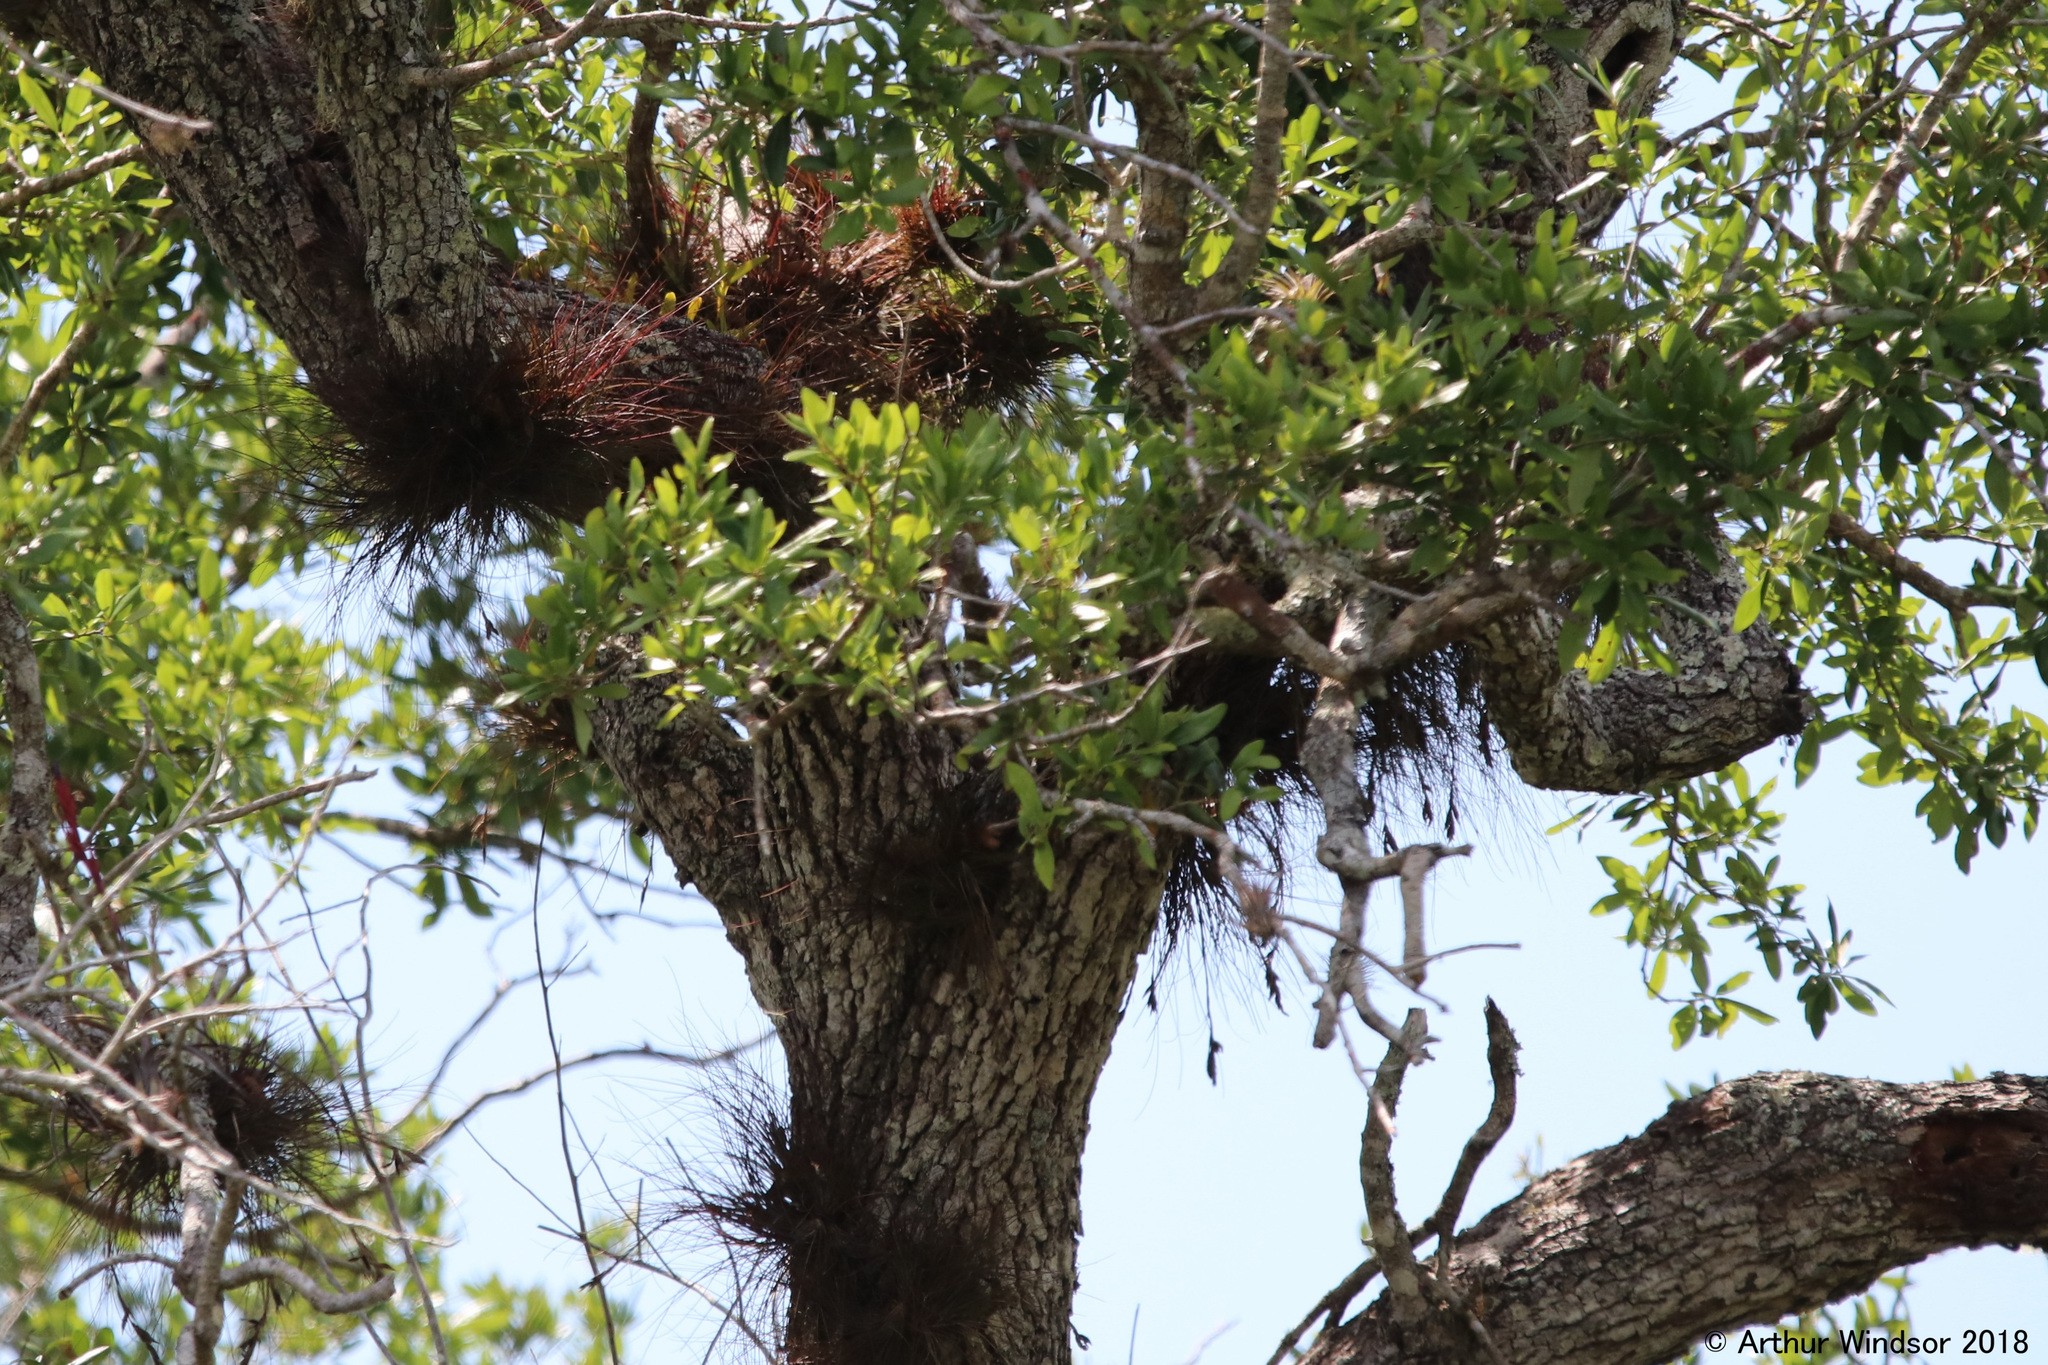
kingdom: Plantae
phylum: Tracheophyta
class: Liliopsida
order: Poales
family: Bromeliaceae
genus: Tillandsia
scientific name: Tillandsia setacea
